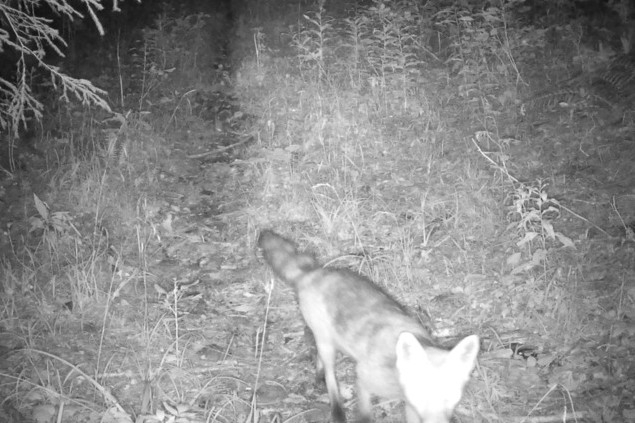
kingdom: Animalia
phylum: Chordata
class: Mammalia
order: Carnivora
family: Canidae
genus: Vulpes
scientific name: Vulpes vulpes
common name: Red fox
